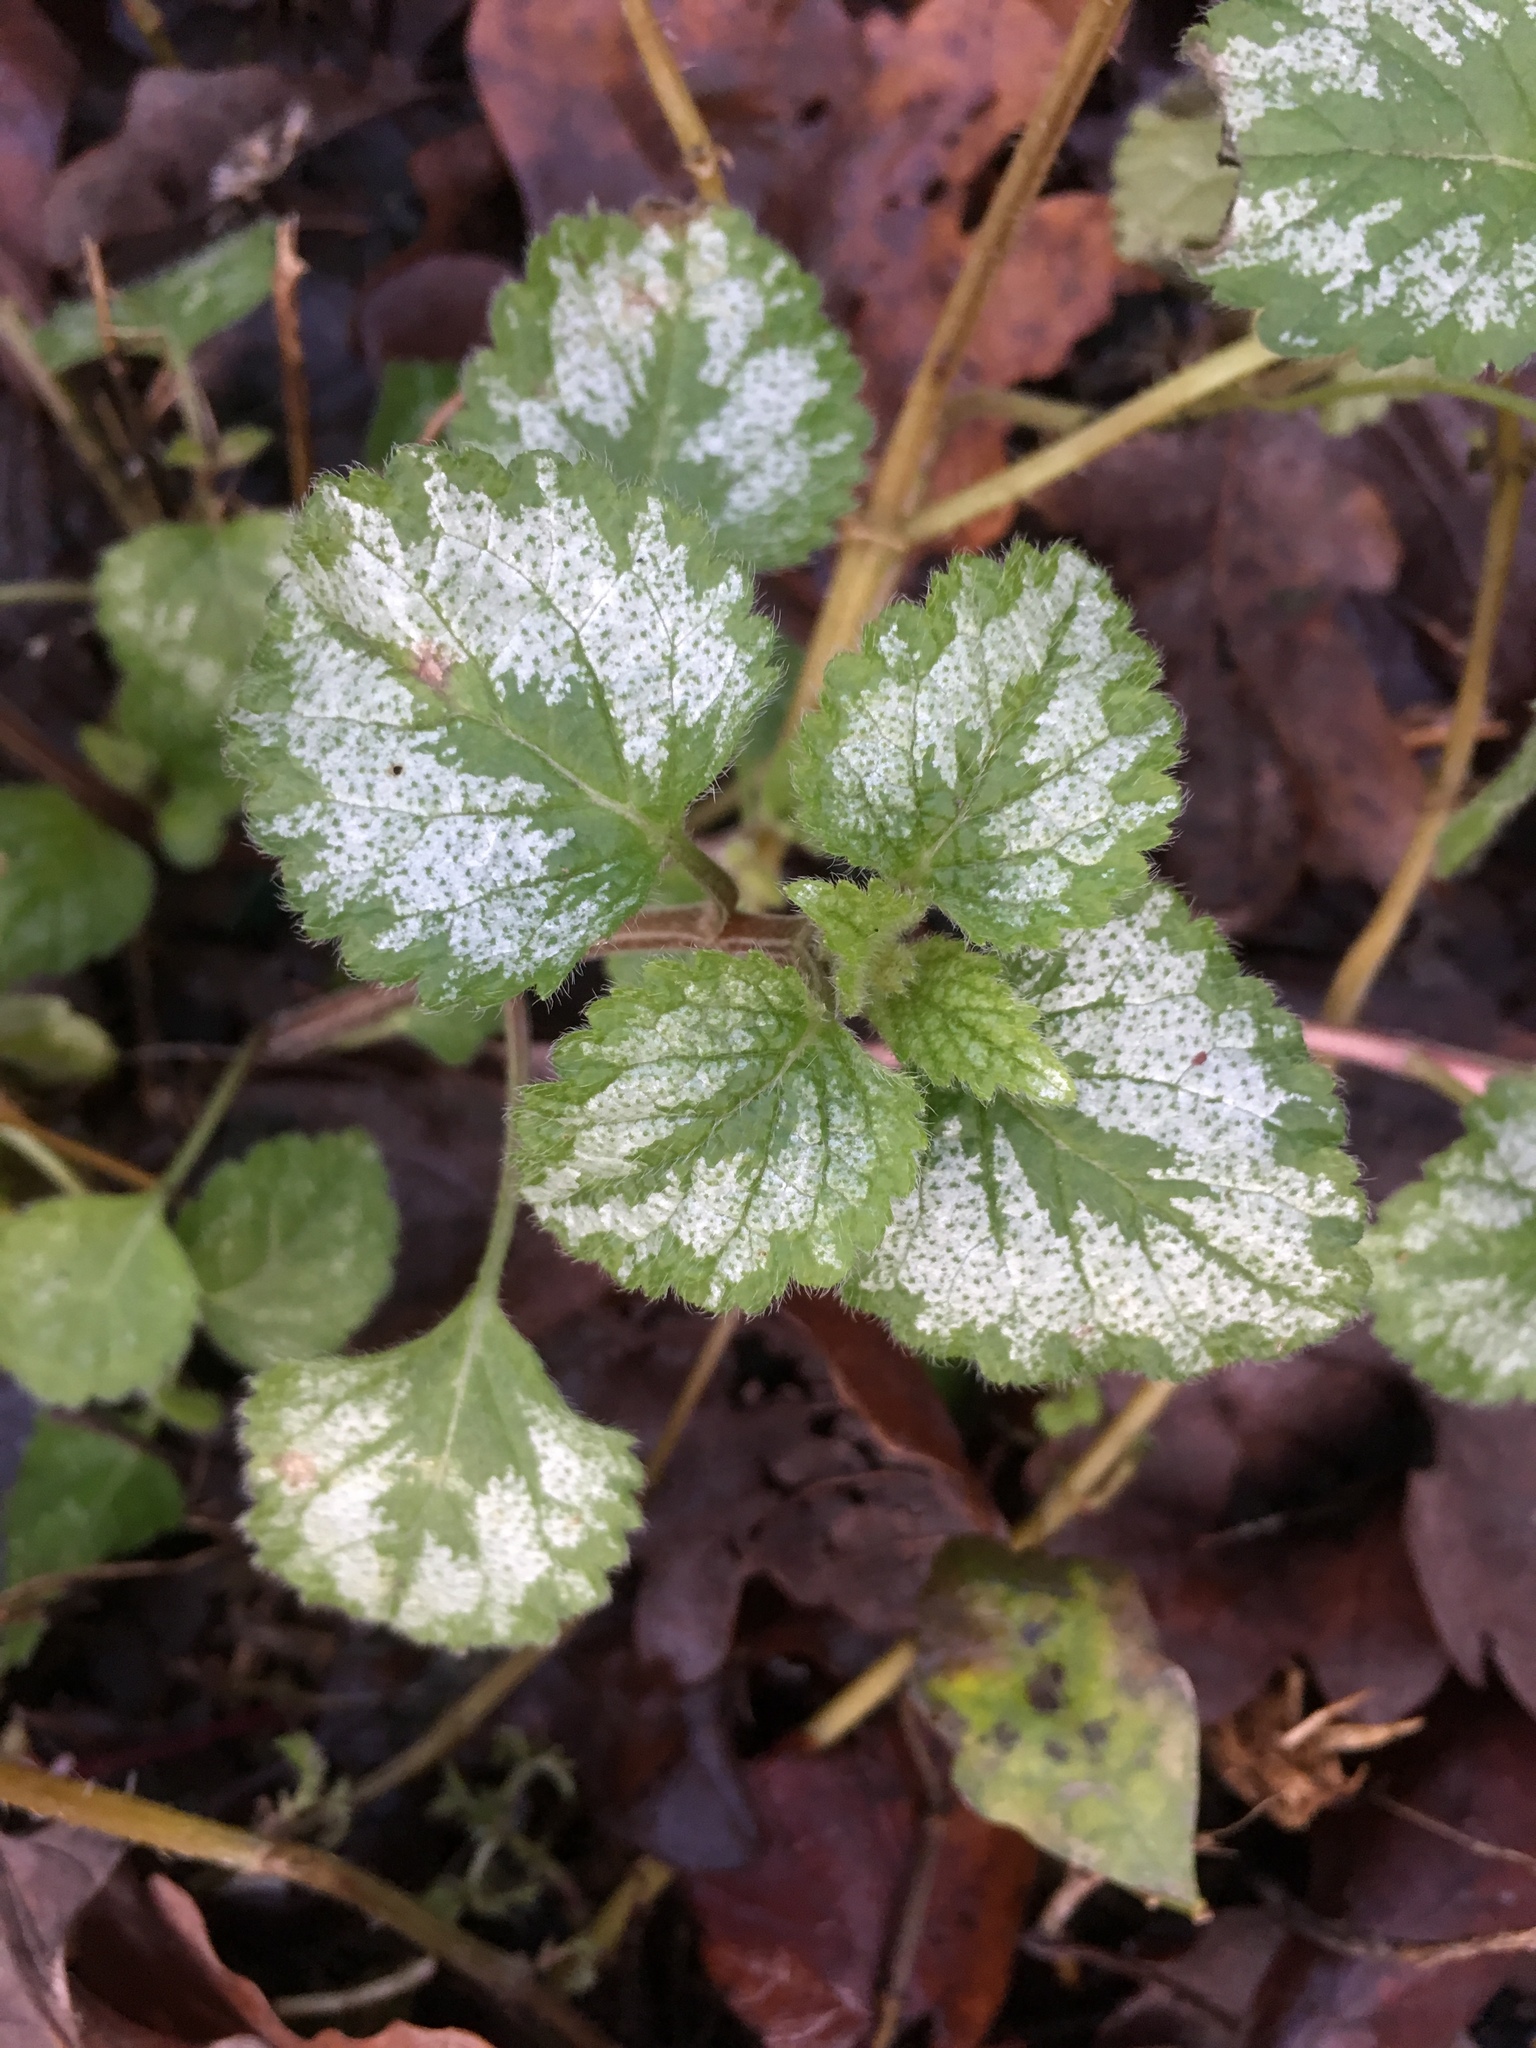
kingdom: Plantae
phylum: Tracheophyta
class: Magnoliopsida
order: Lamiales
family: Lamiaceae
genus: Lamium
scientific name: Lamium galeobdolon
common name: Yellow archangel
